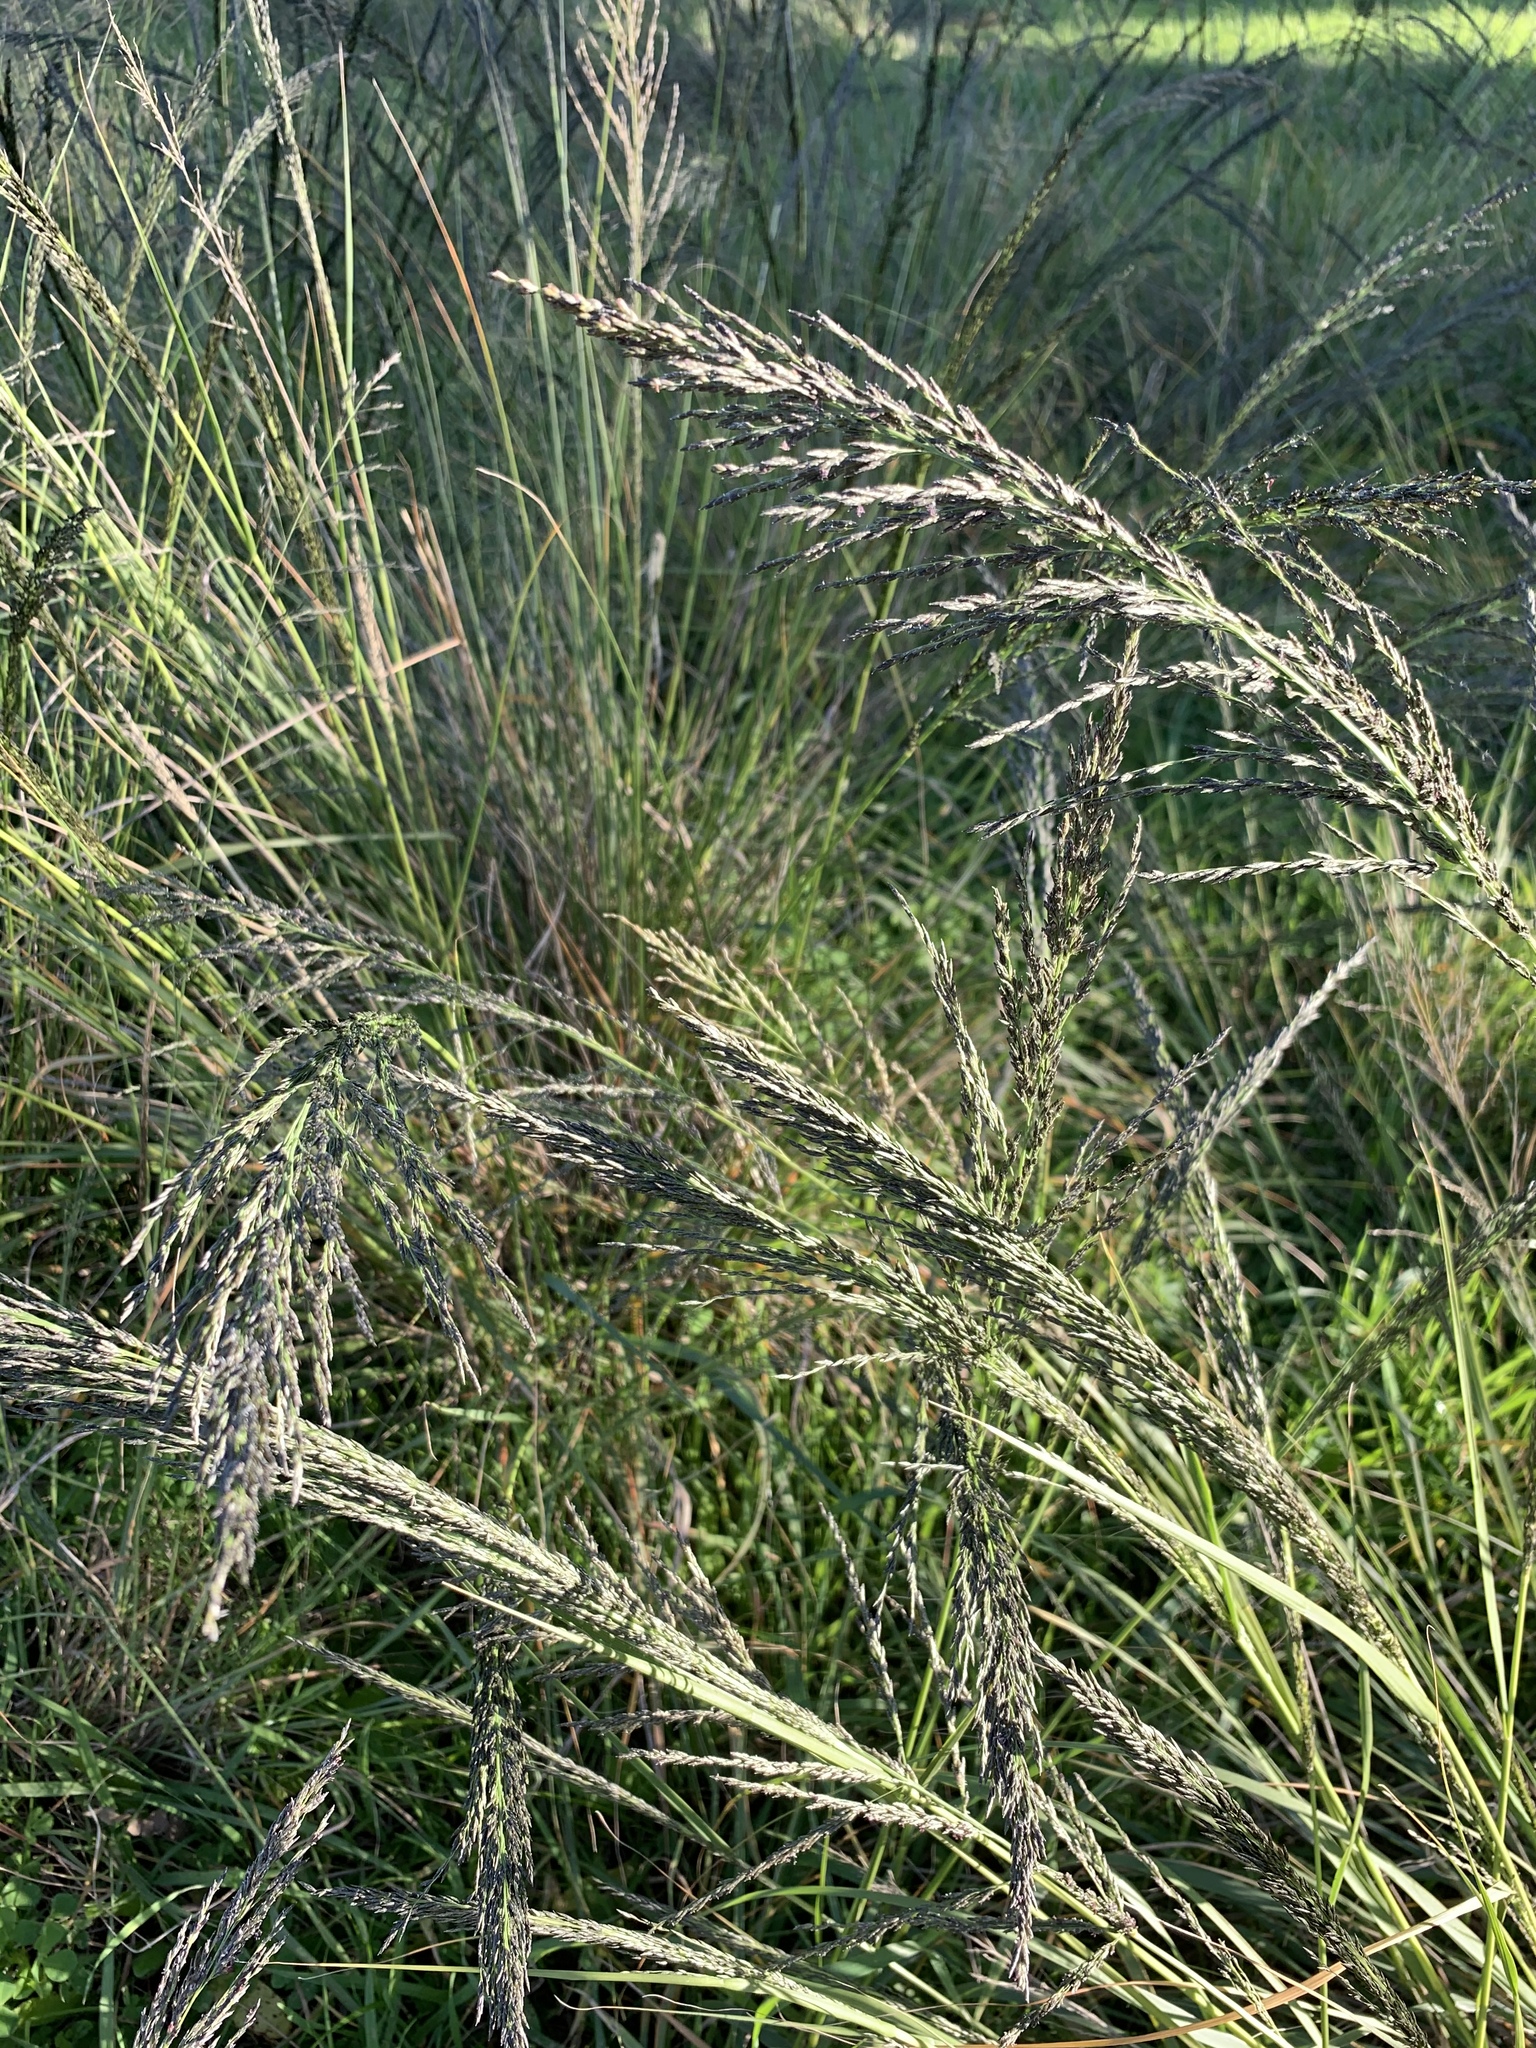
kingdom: Plantae
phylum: Tracheophyta
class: Liliopsida
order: Poales
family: Poaceae
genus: Eragrostis
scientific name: Eragrostis curvula
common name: African love-grass
